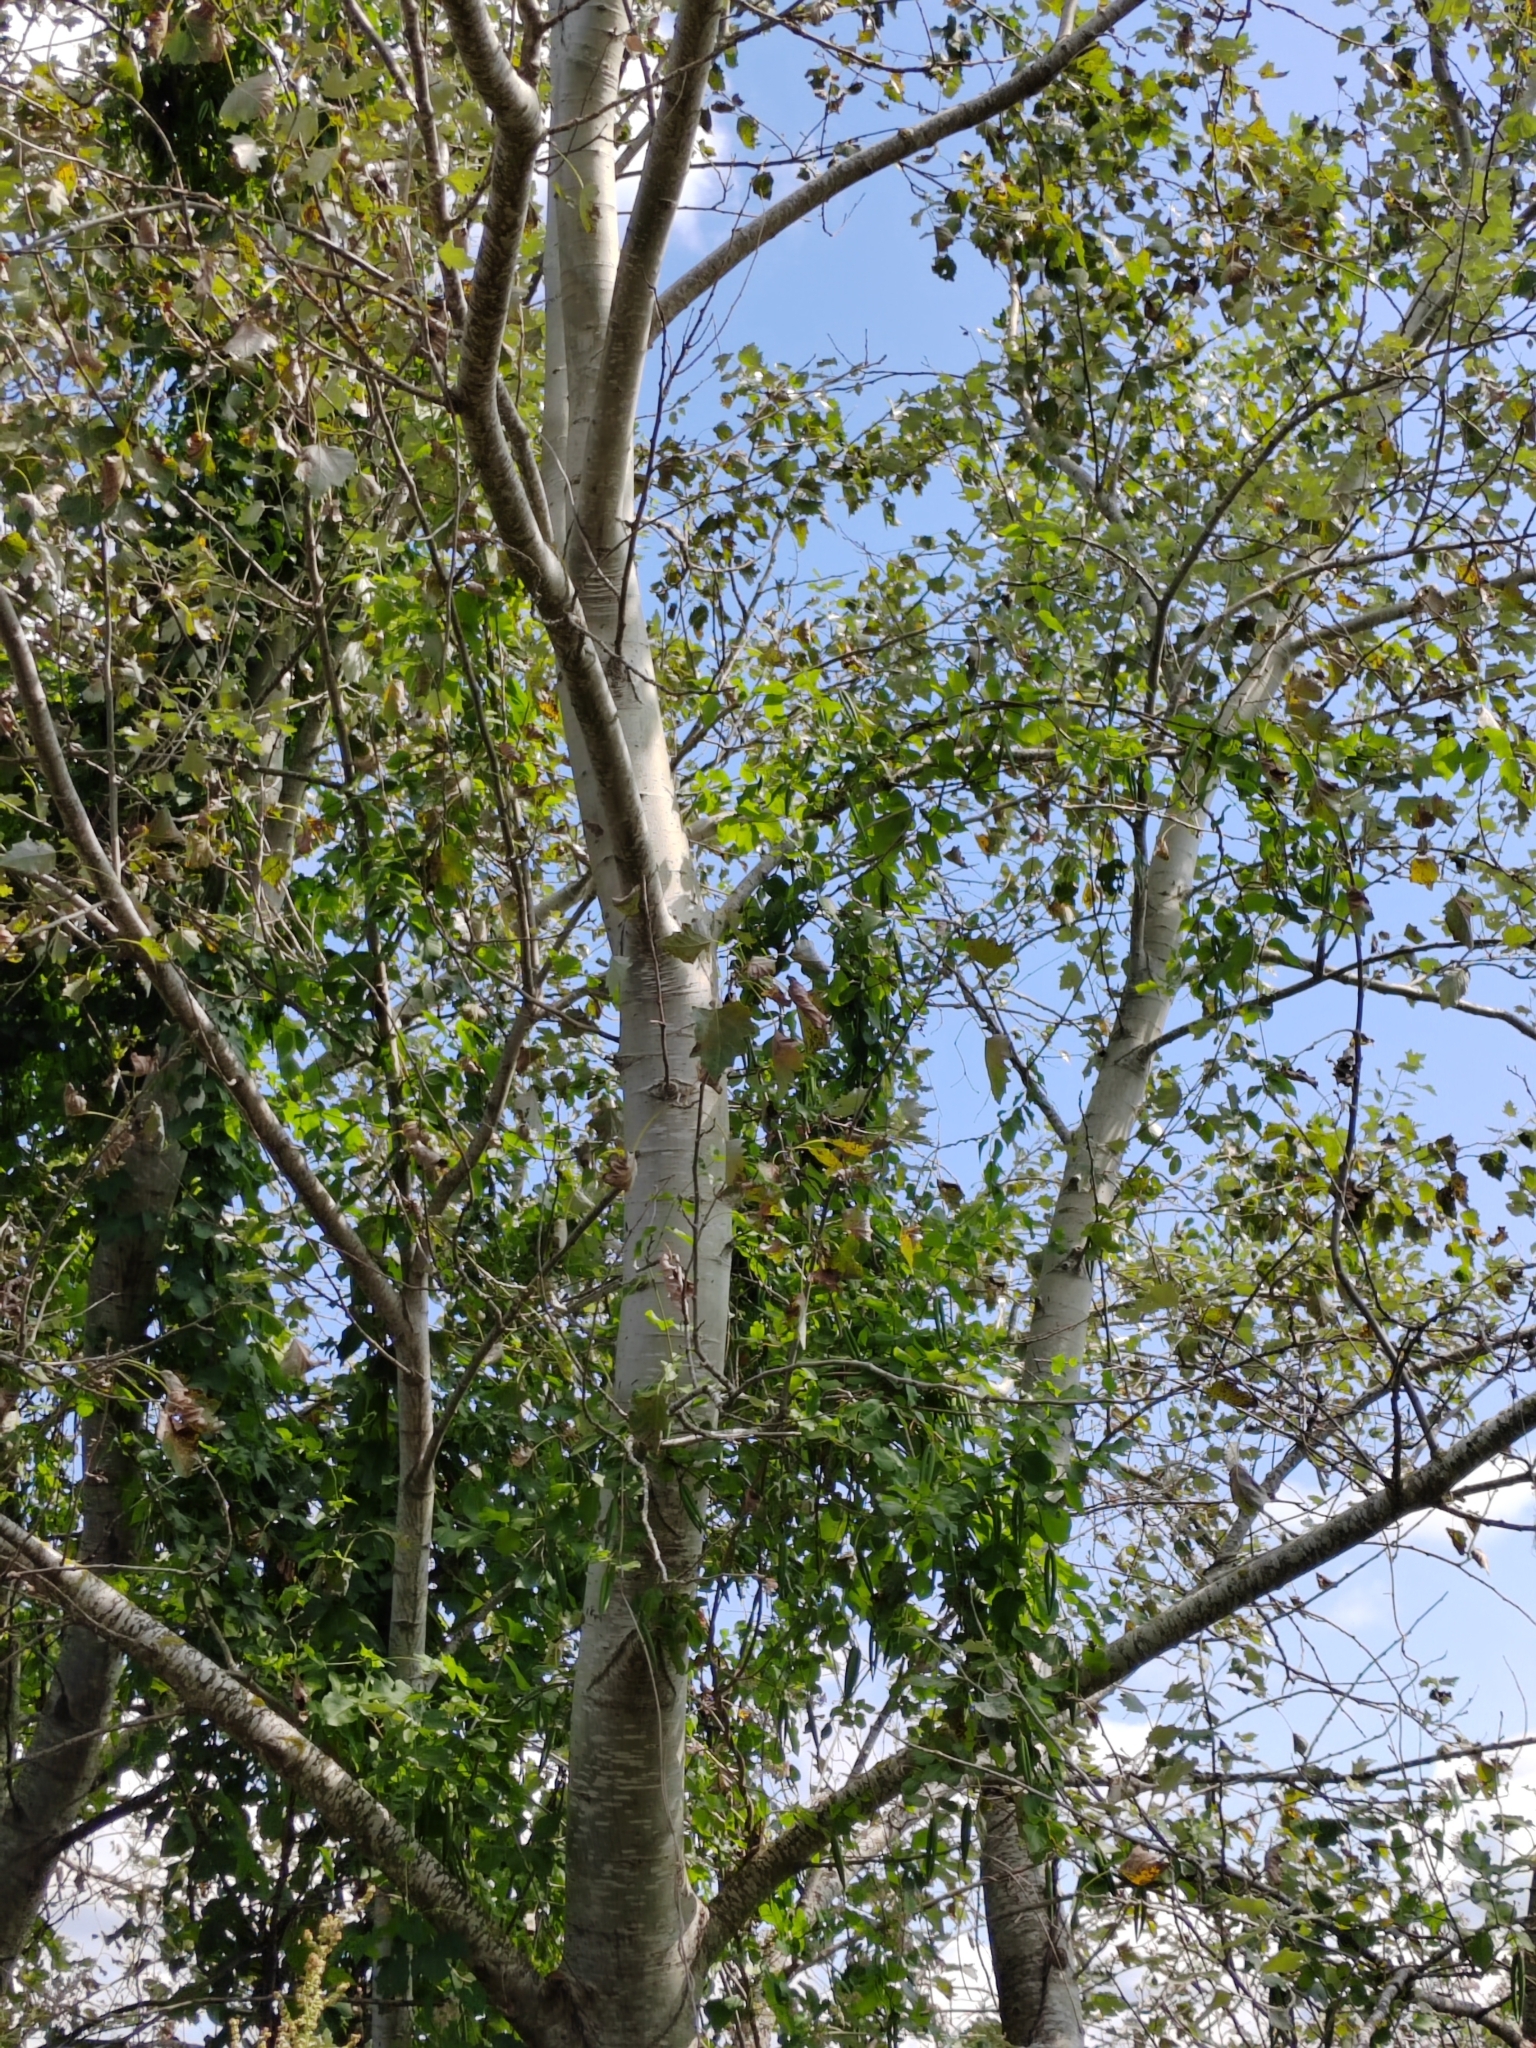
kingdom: Plantae
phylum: Tracheophyta
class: Magnoliopsida
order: Malpighiales
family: Salicaceae
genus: Populus
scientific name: Populus alba
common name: White poplar
